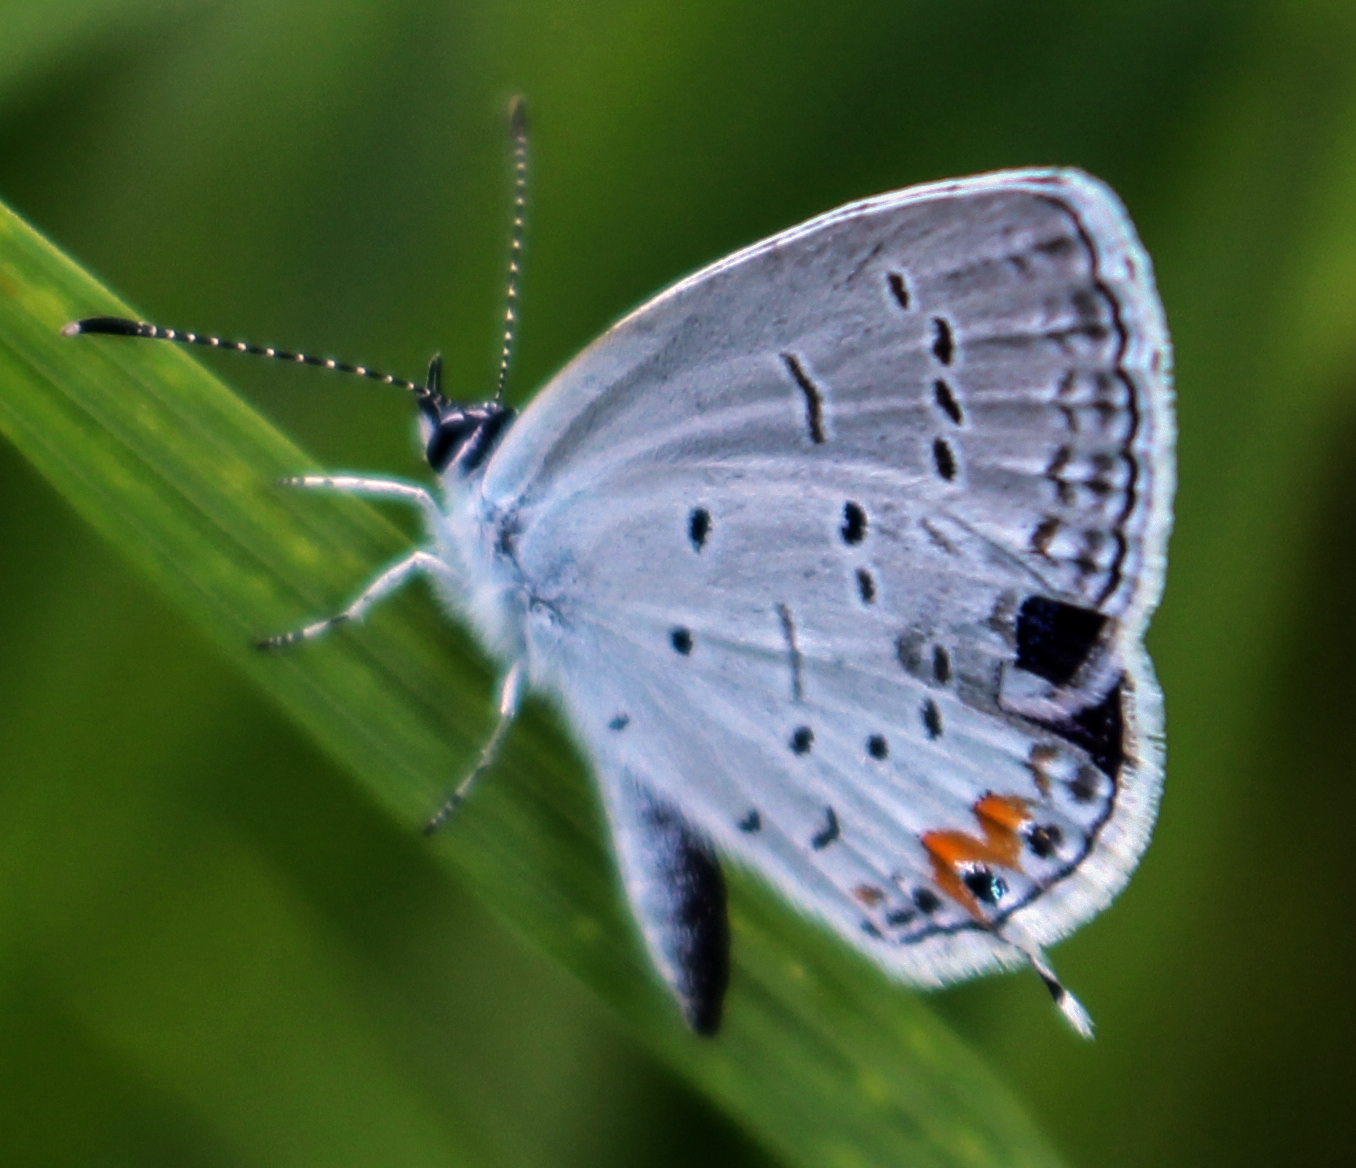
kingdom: Animalia
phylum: Arthropoda
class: Insecta
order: Lepidoptera
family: Lycaenidae
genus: Elkalyce
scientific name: Elkalyce comyntas
